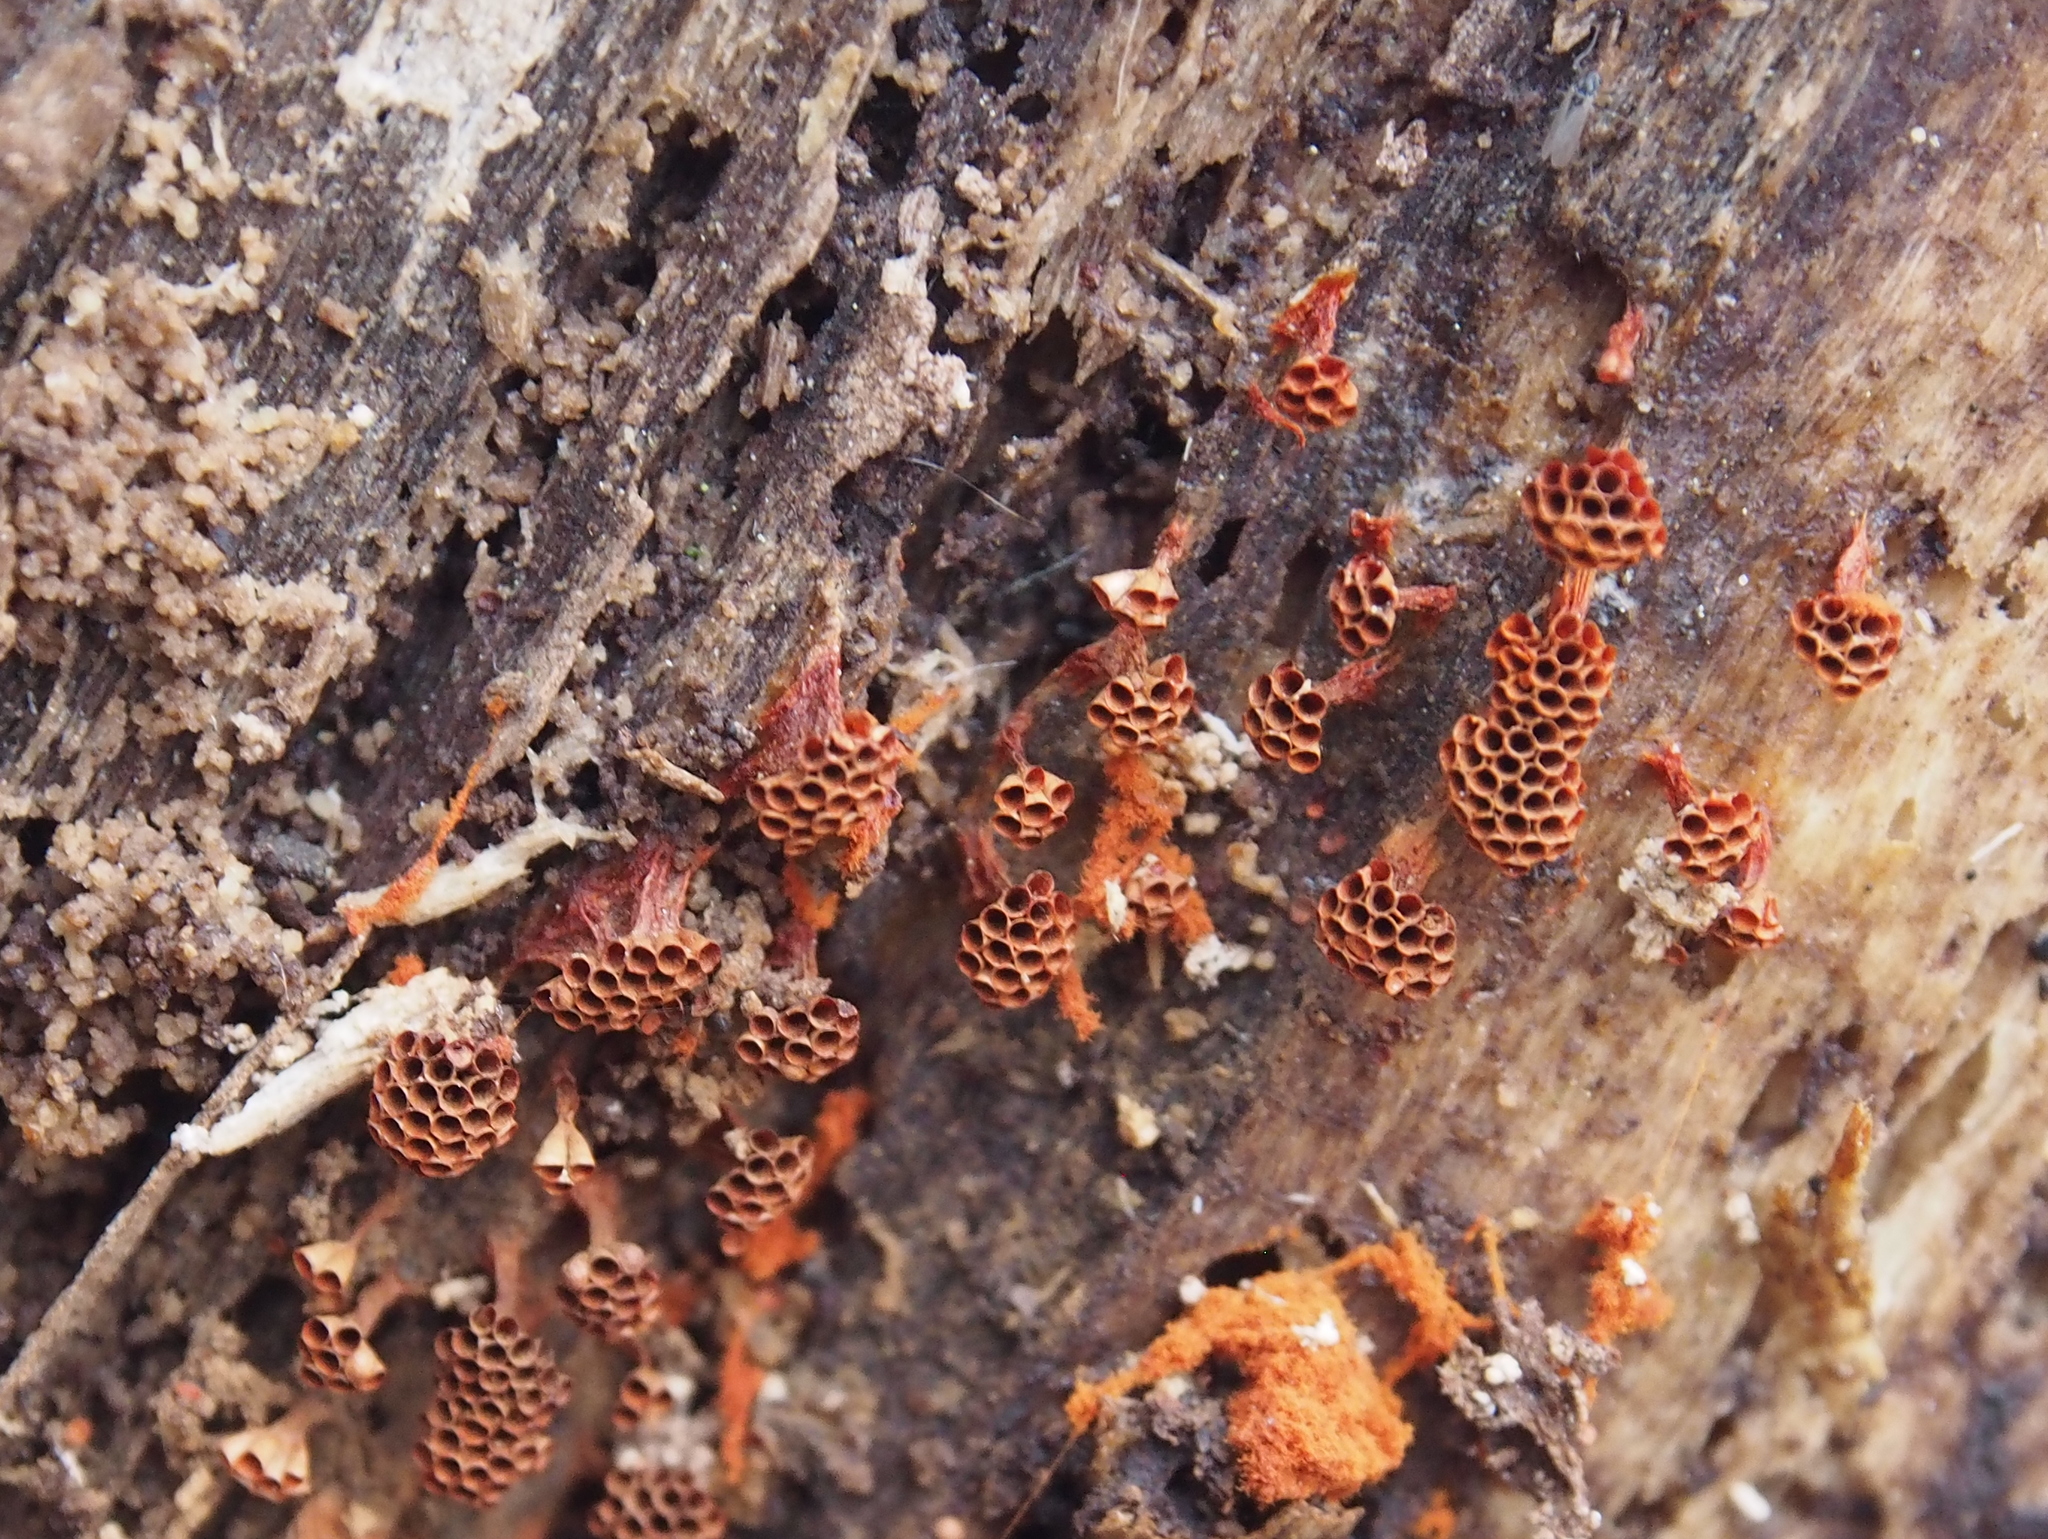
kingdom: Protozoa
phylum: Mycetozoa
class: Myxomycetes
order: Trichiales
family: Trichiaceae
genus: Metatrichia
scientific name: Metatrichia vesparia
